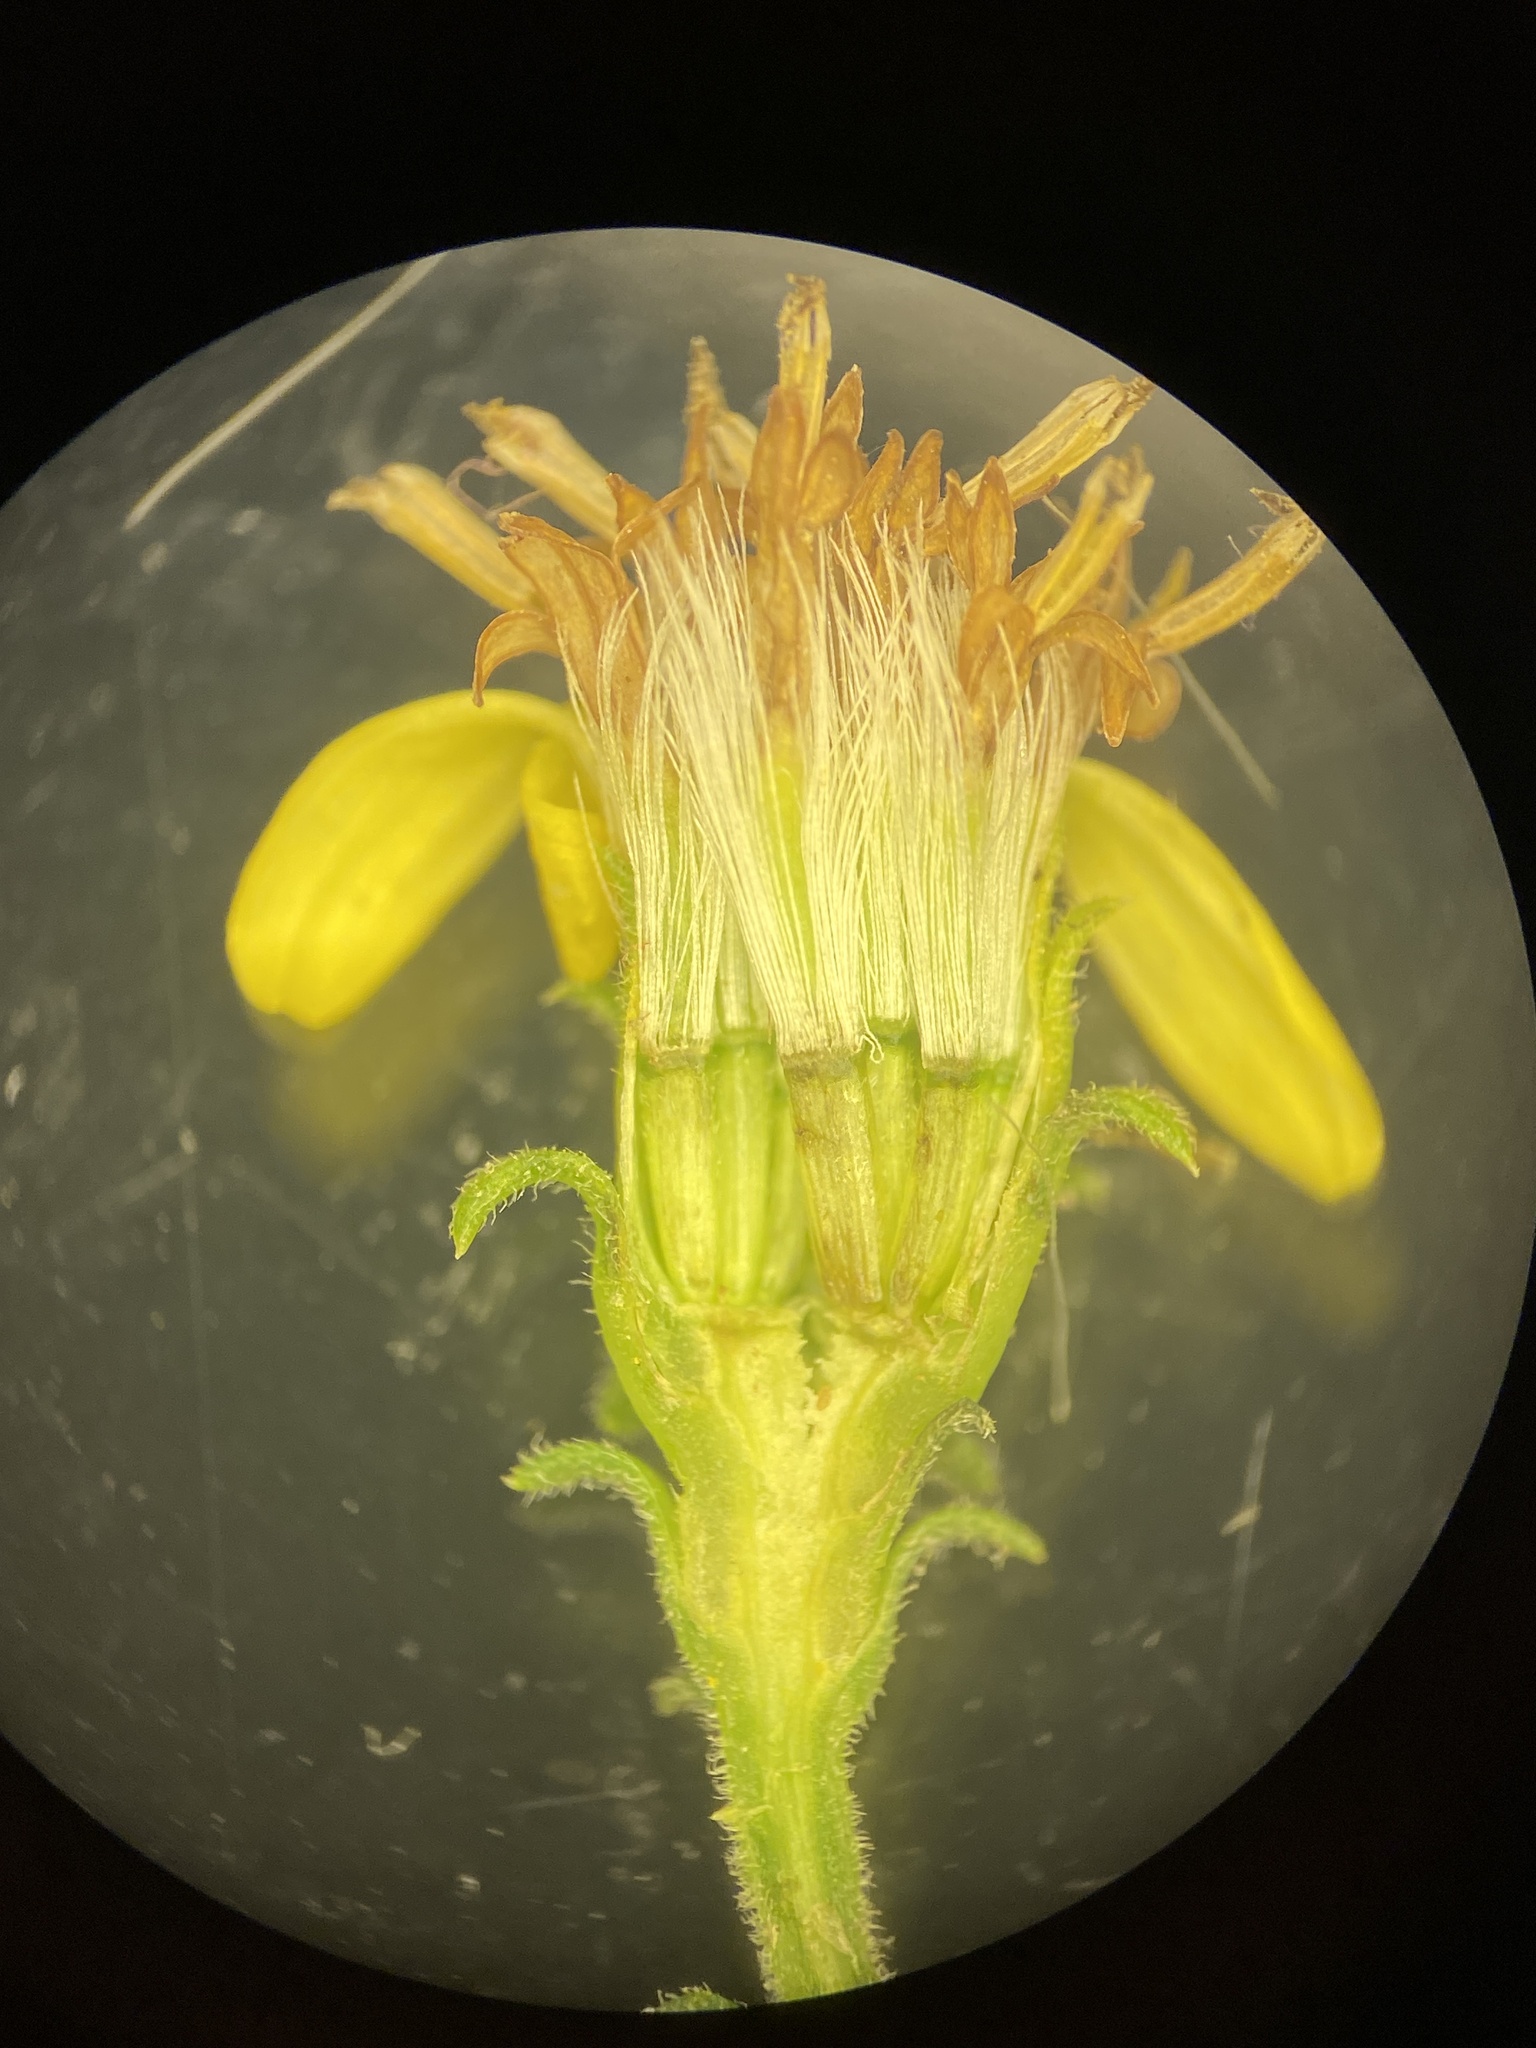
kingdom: Plantae
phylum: Tracheophyta
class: Magnoliopsida
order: Asterales
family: Asteraceae
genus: Solidago
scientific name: Solidago petiolaris
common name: Downy ragged goldenrod
